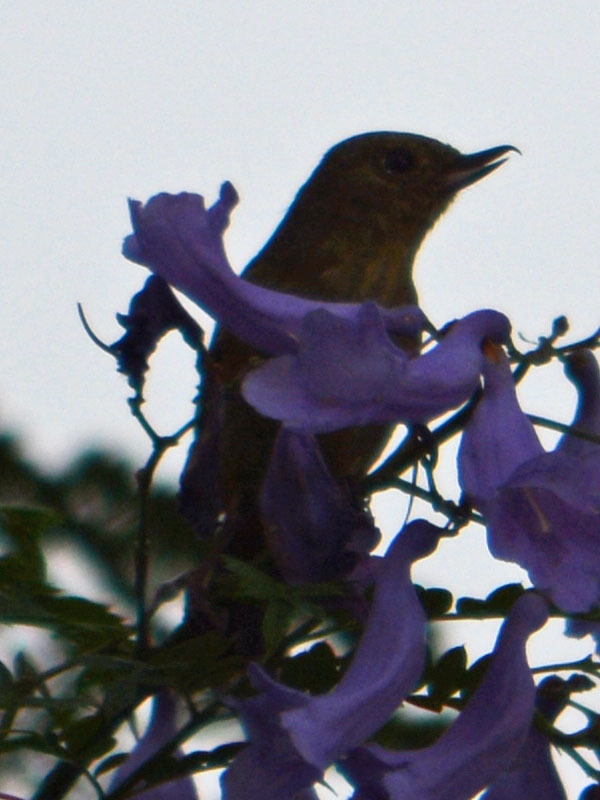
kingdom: Animalia
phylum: Chordata
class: Aves
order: Passeriformes
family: Thraupidae
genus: Diglossa
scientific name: Diglossa baritula
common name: Cinnamon-bellied flowerpiercer
